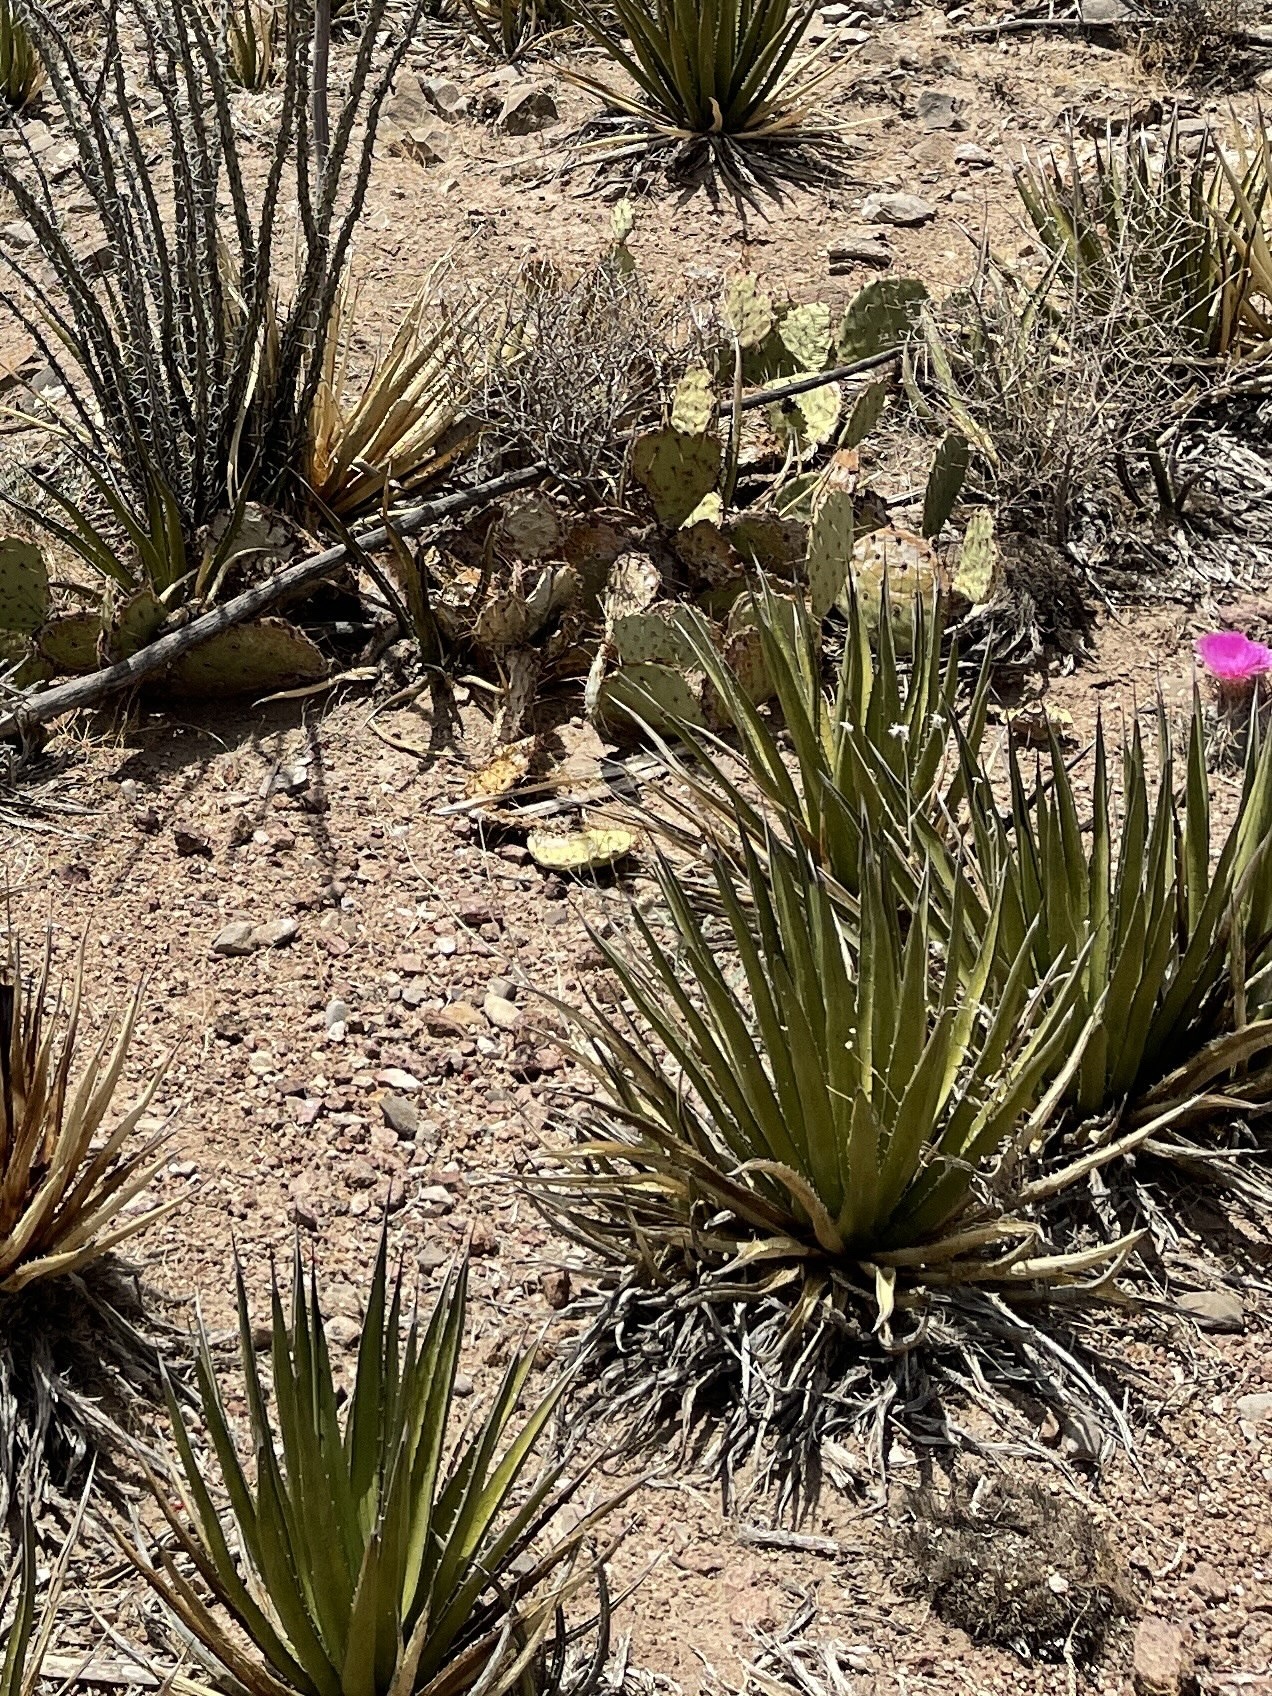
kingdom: Plantae
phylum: Tracheophyta
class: Liliopsida
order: Asparagales
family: Asparagaceae
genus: Agave
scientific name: Agave lechuguilla
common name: Lecheguilla agave
